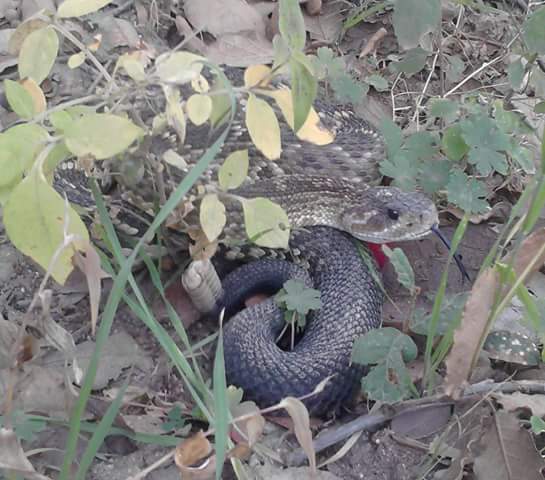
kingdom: Animalia
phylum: Chordata
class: Squamata
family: Viperidae
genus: Crotalus
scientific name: Crotalus molossus
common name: Black tailed rattlesnake
